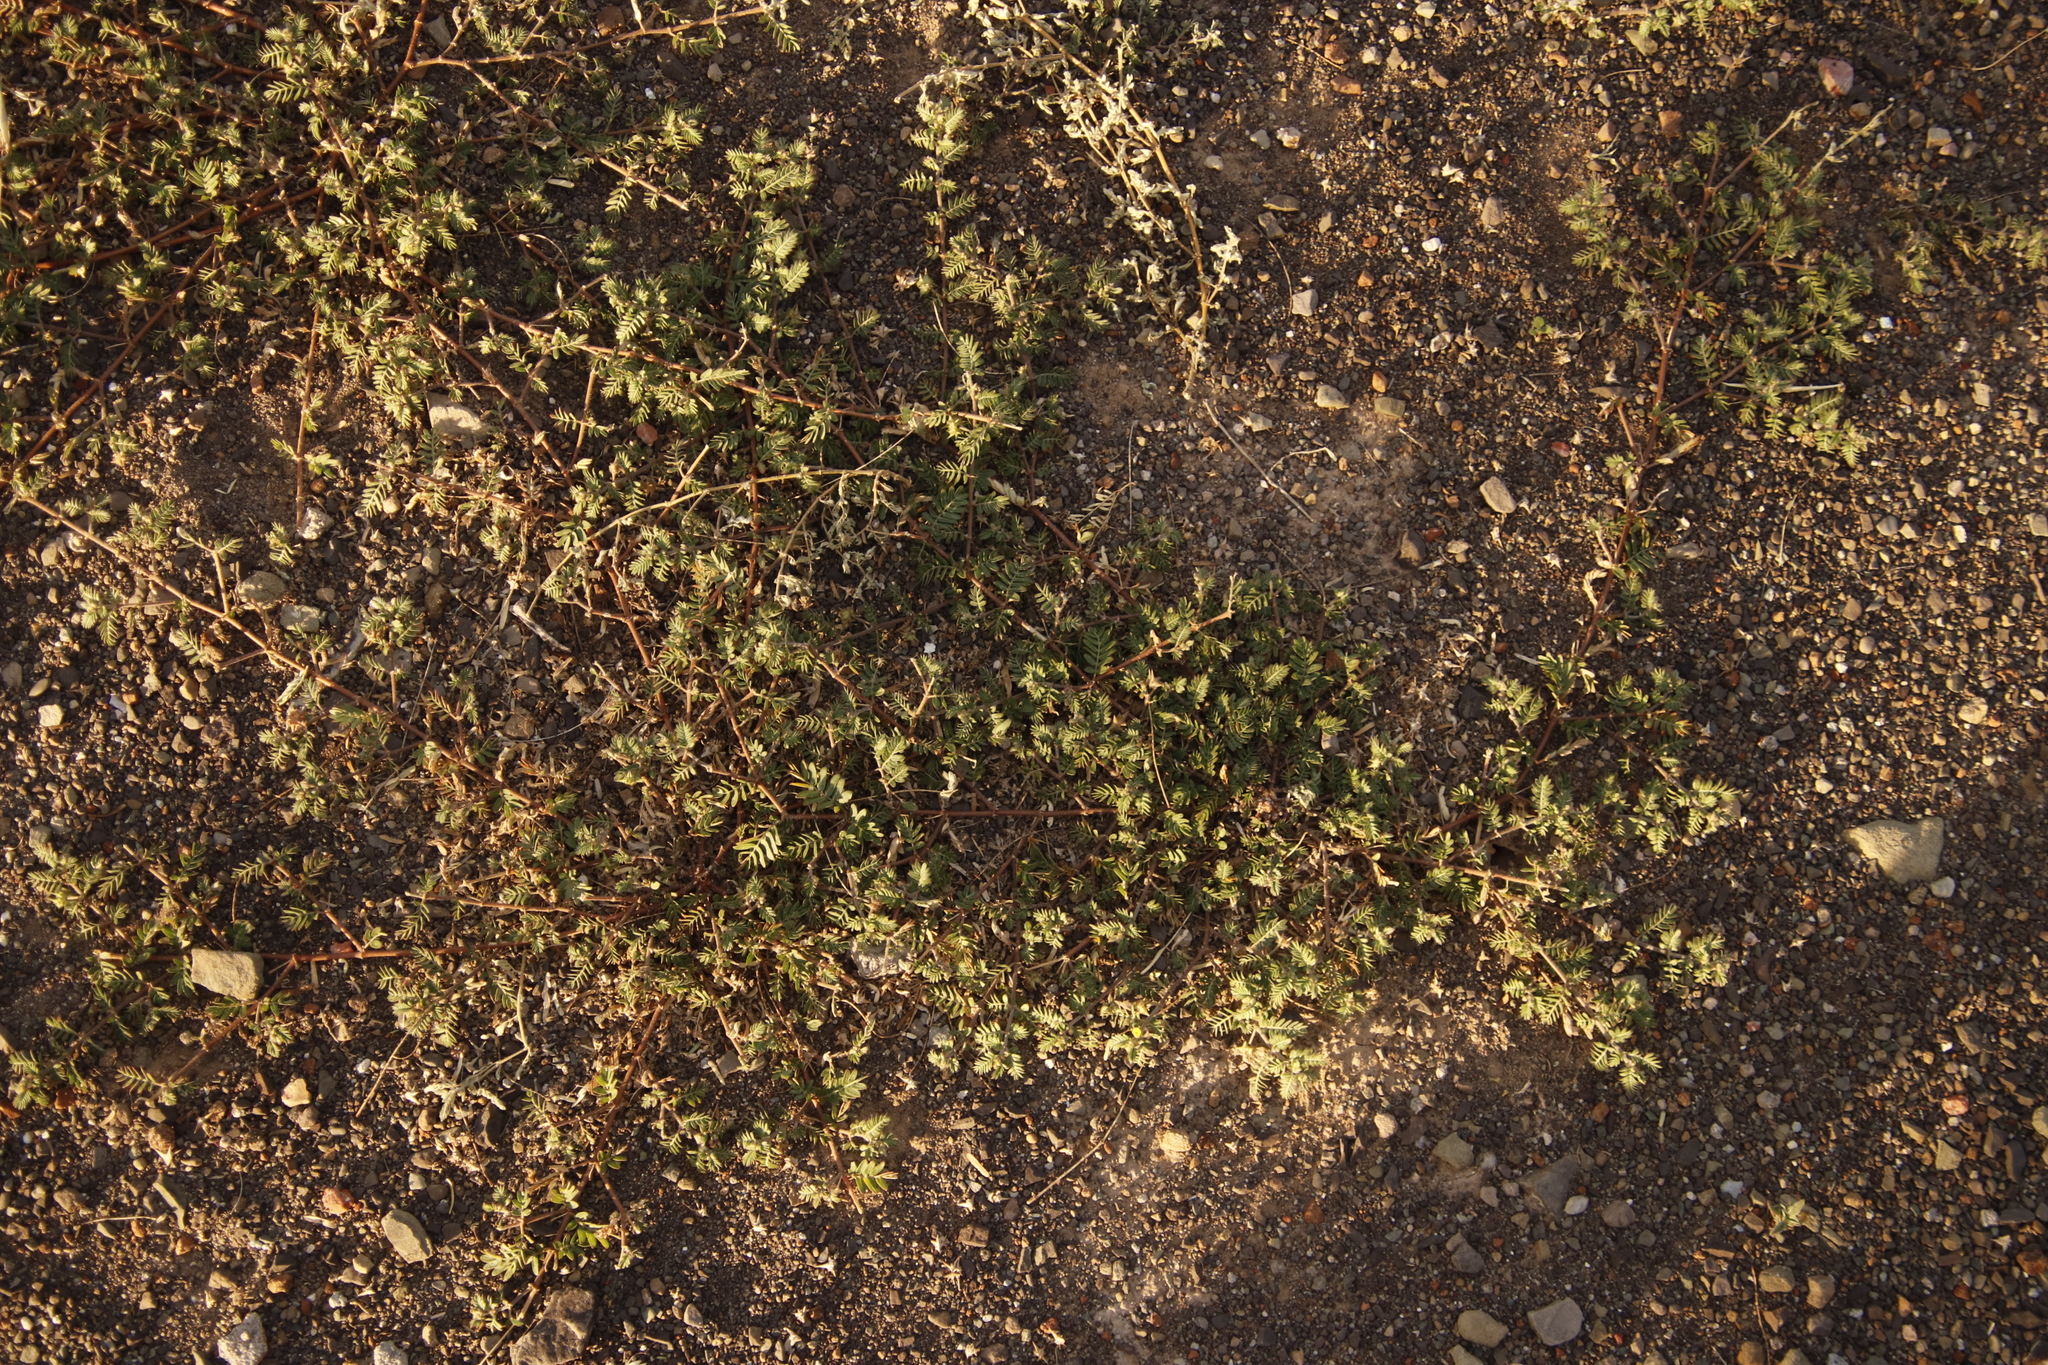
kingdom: Plantae
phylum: Tracheophyta
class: Magnoliopsida
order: Zygophyllales
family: Zygophyllaceae
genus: Tribulus
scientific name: Tribulus terrestris
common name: Puncturevine
